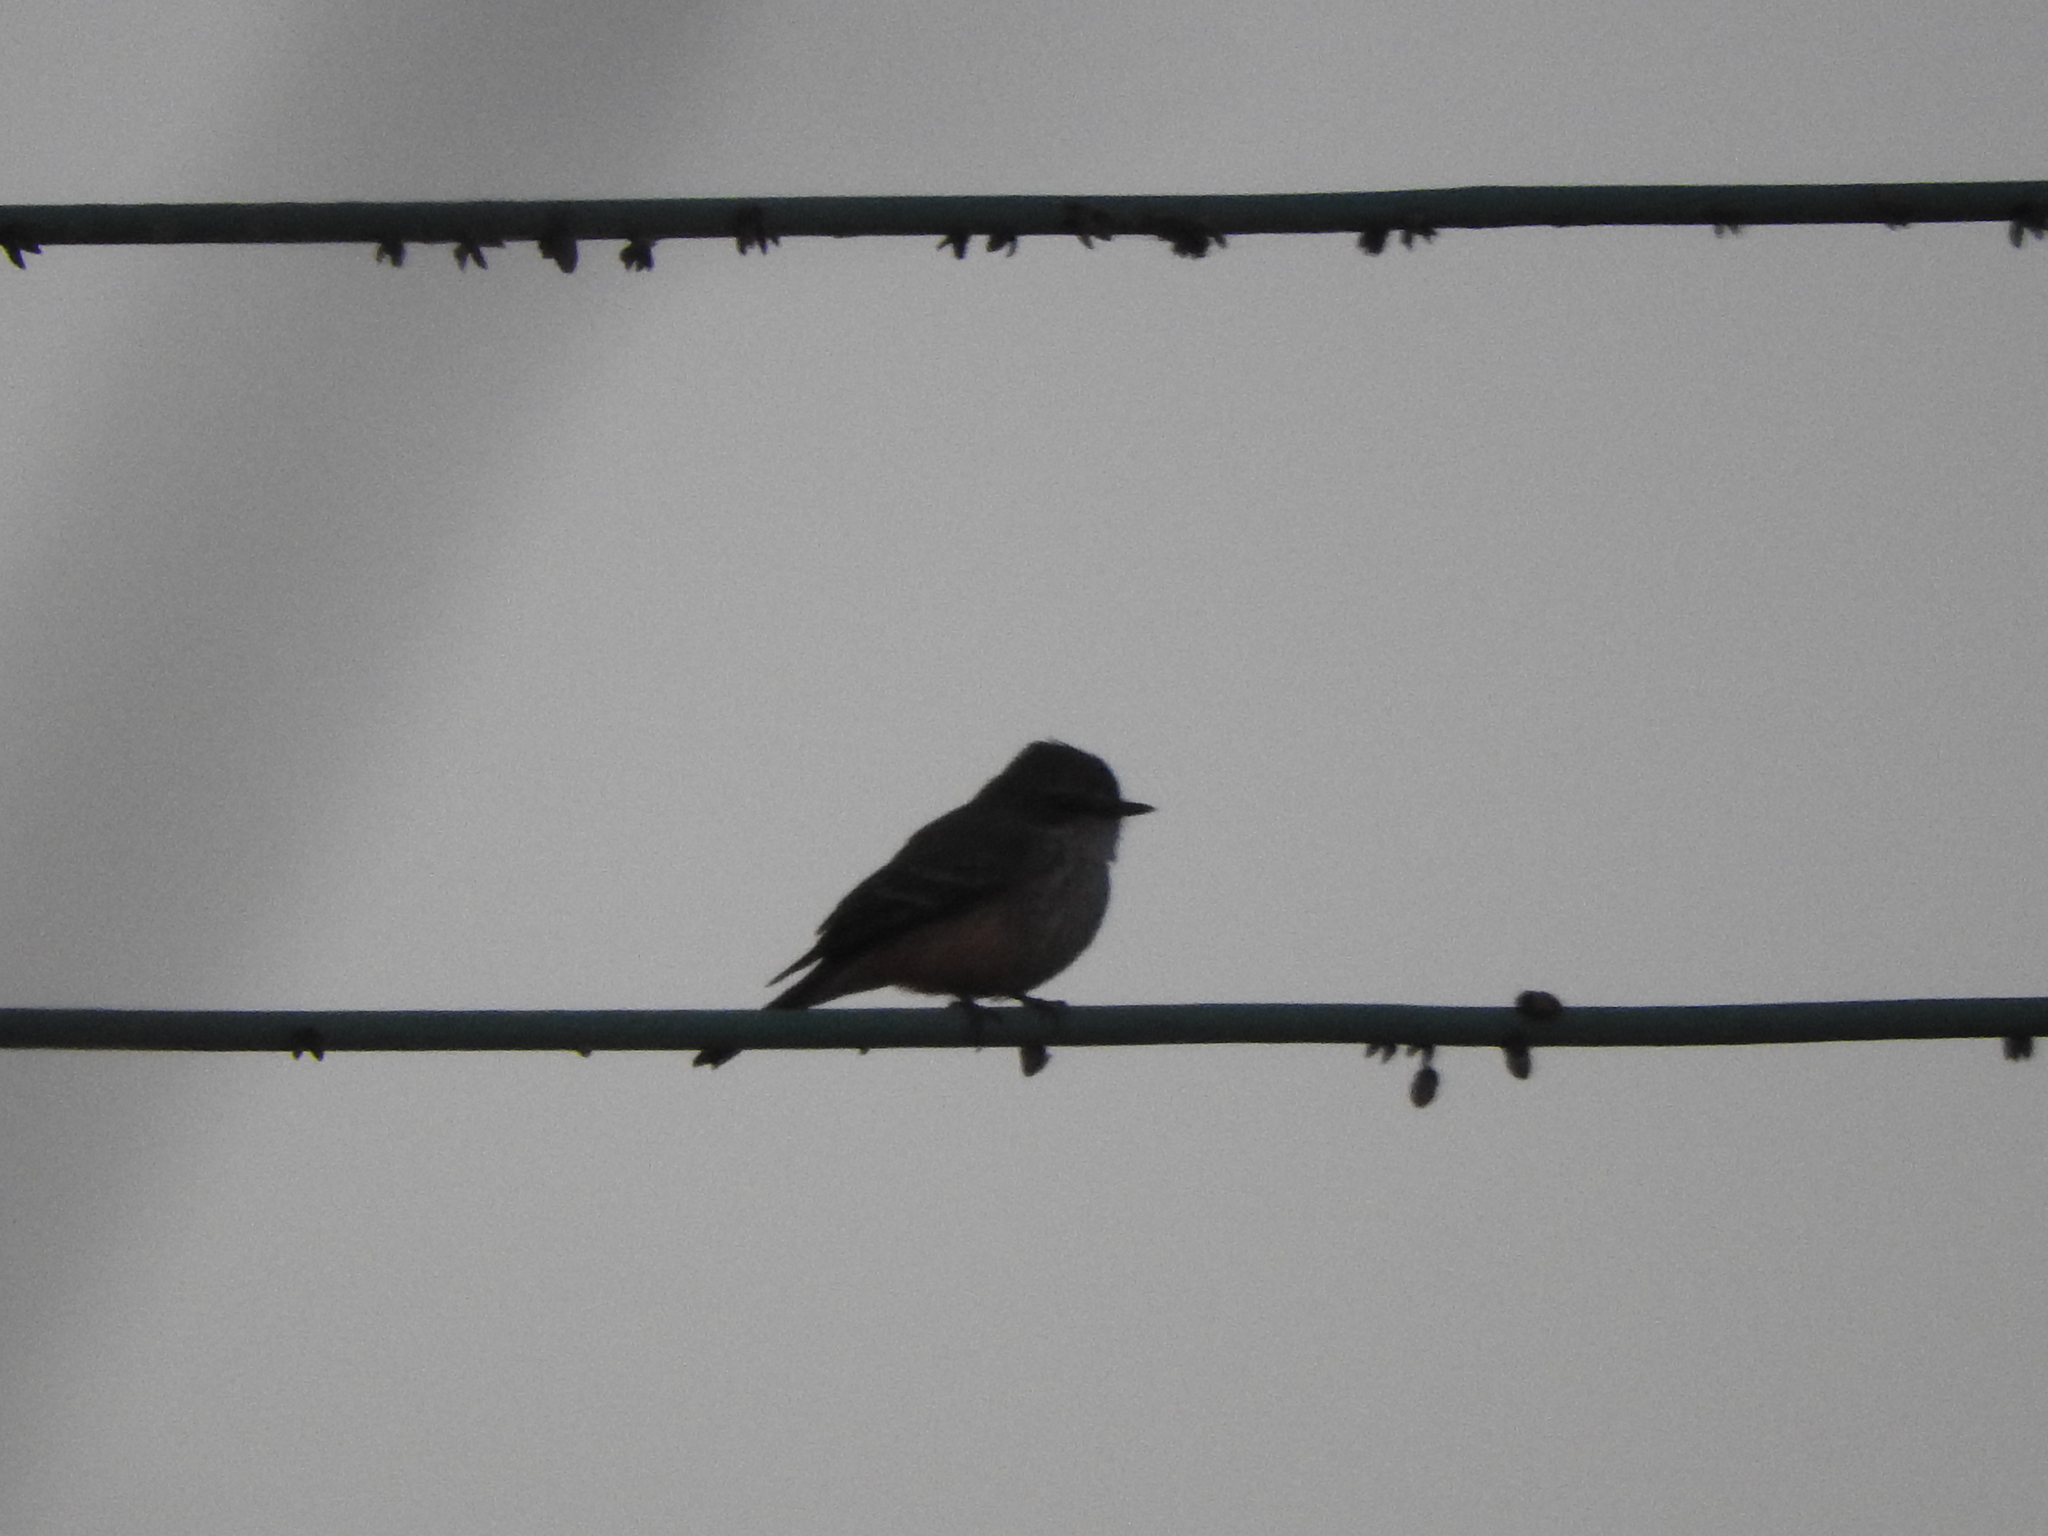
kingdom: Animalia
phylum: Chordata
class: Aves
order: Passeriformes
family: Tyrannidae
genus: Pyrocephalus
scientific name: Pyrocephalus rubinus
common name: Vermilion flycatcher
